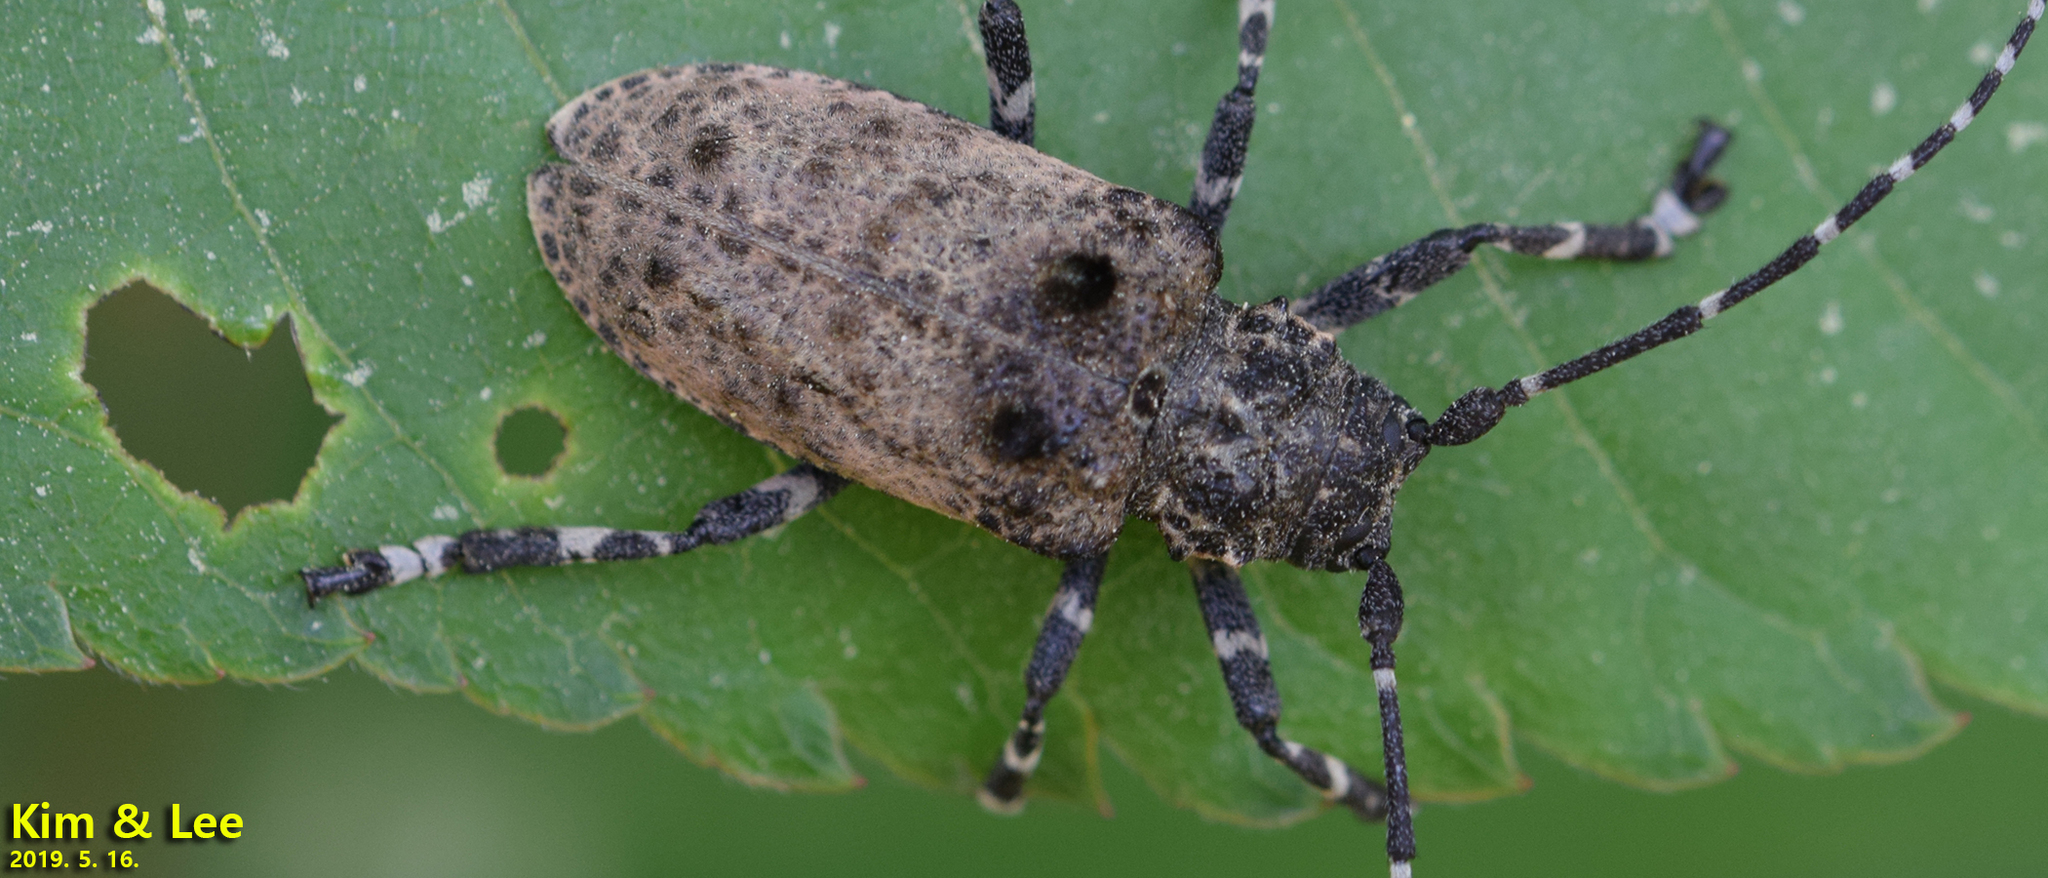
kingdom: Animalia
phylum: Arthropoda
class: Insecta
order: Coleoptera
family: Cerambycidae
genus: Moechotypa
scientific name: Moechotypa diphysis
